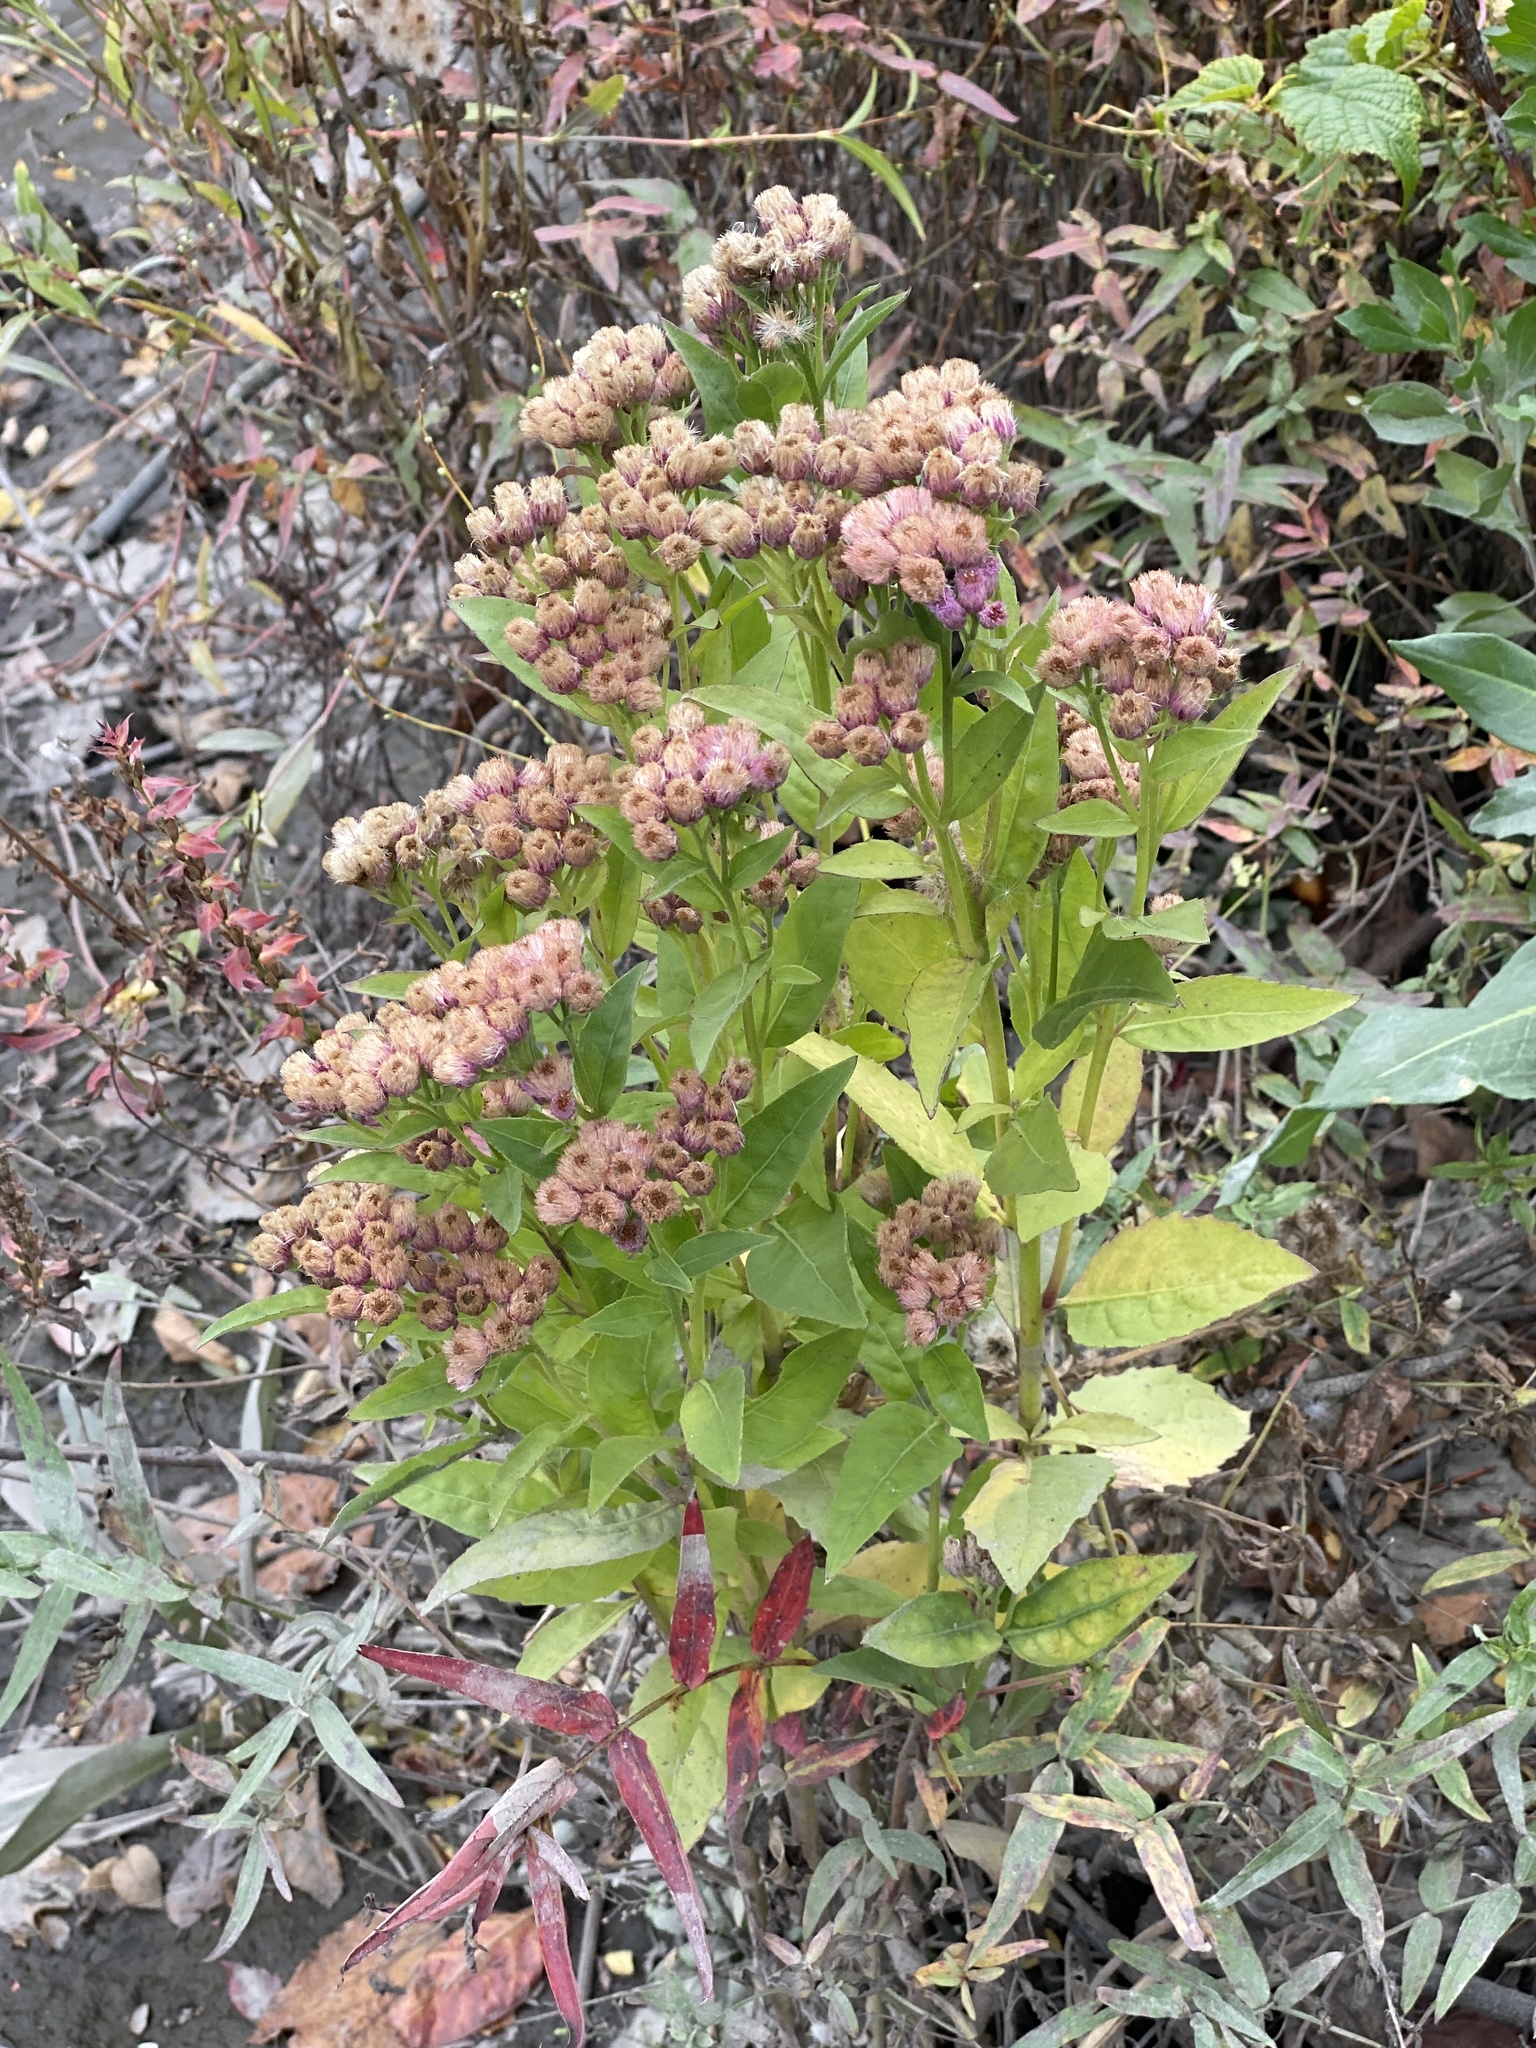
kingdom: Plantae
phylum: Tracheophyta
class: Magnoliopsida
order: Asterales
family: Asteraceae
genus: Pluchea
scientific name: Pluchea odorata
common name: Saltmarsh fleabane
